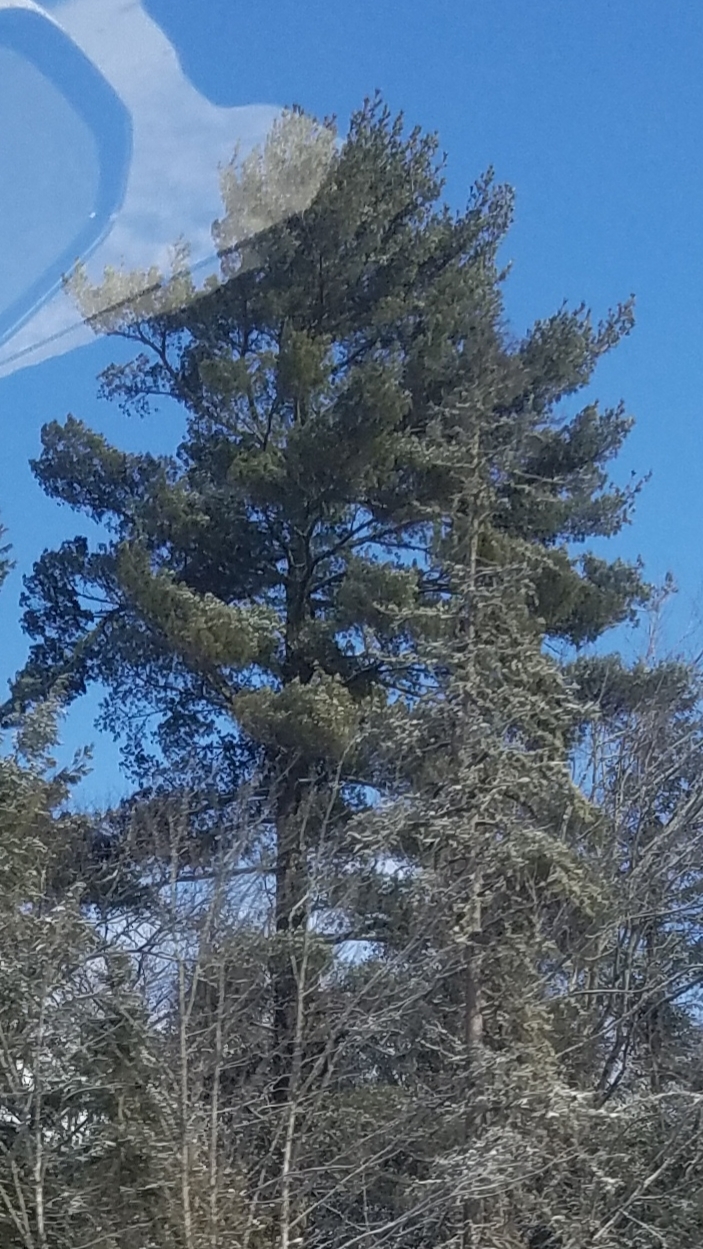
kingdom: Plantae
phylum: Tracheophyta
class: Pinopsida
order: Pinales
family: Pinaceae
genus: Pinus
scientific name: Pinus strobus
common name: Weymouth pine
